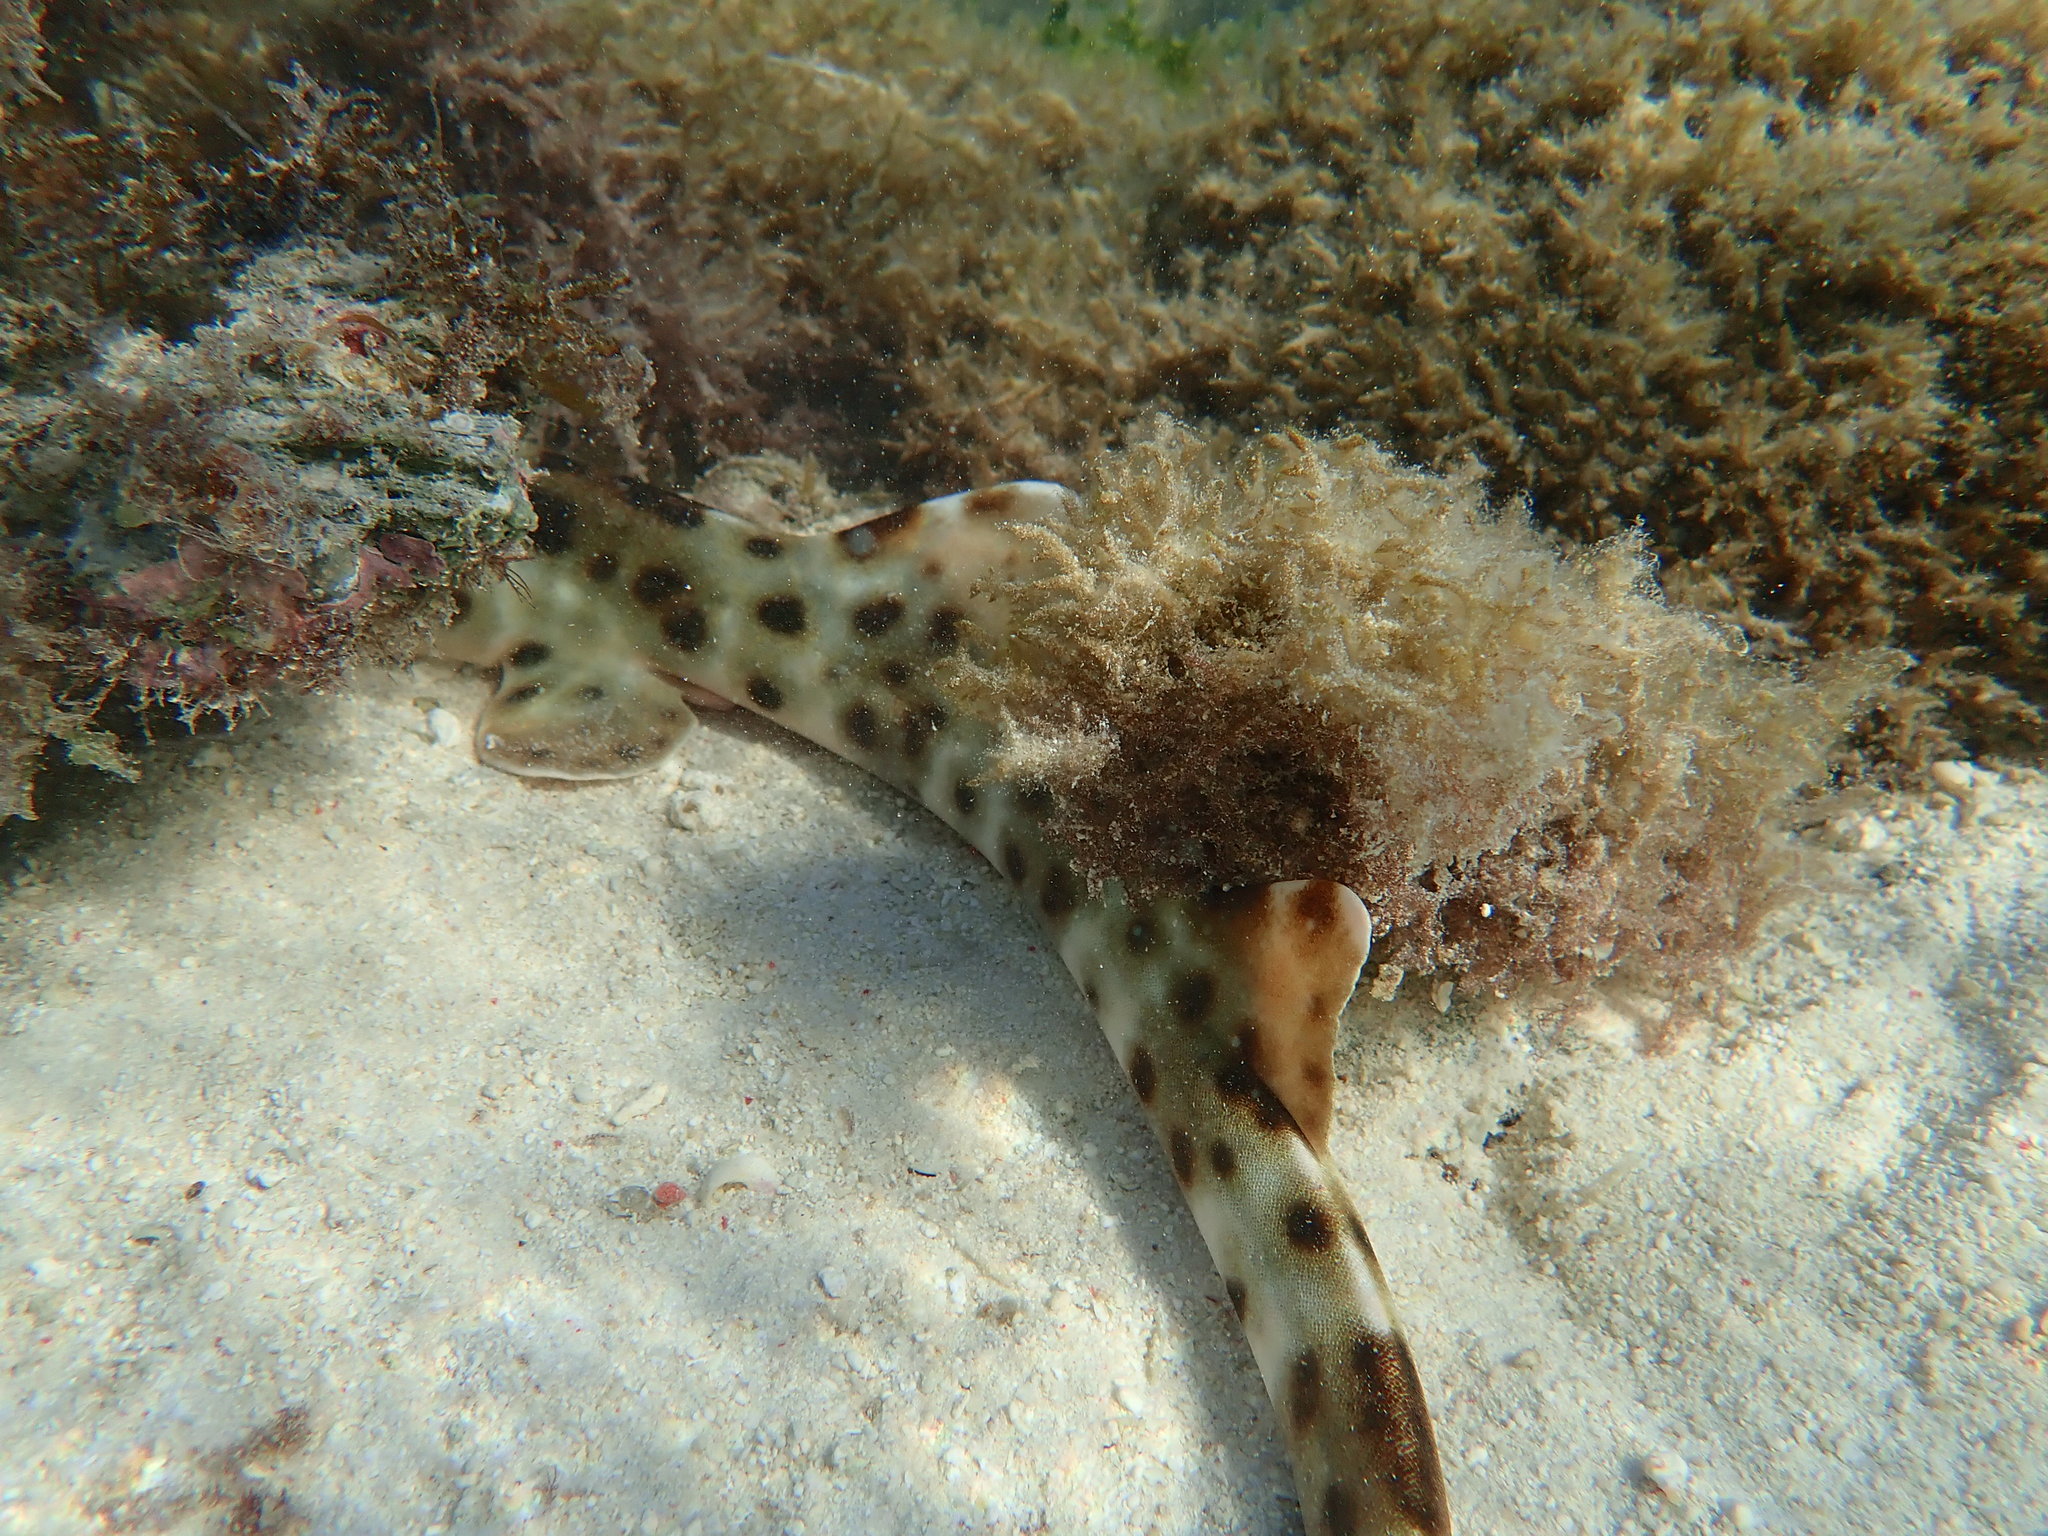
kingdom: Animalia
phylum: Chordata
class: Elasmobranchii
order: Orectolobiformes
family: Hemiscylliidae
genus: Hemiscyllium
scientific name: Hemiscyllium ocellatum
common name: Epaulette shark
